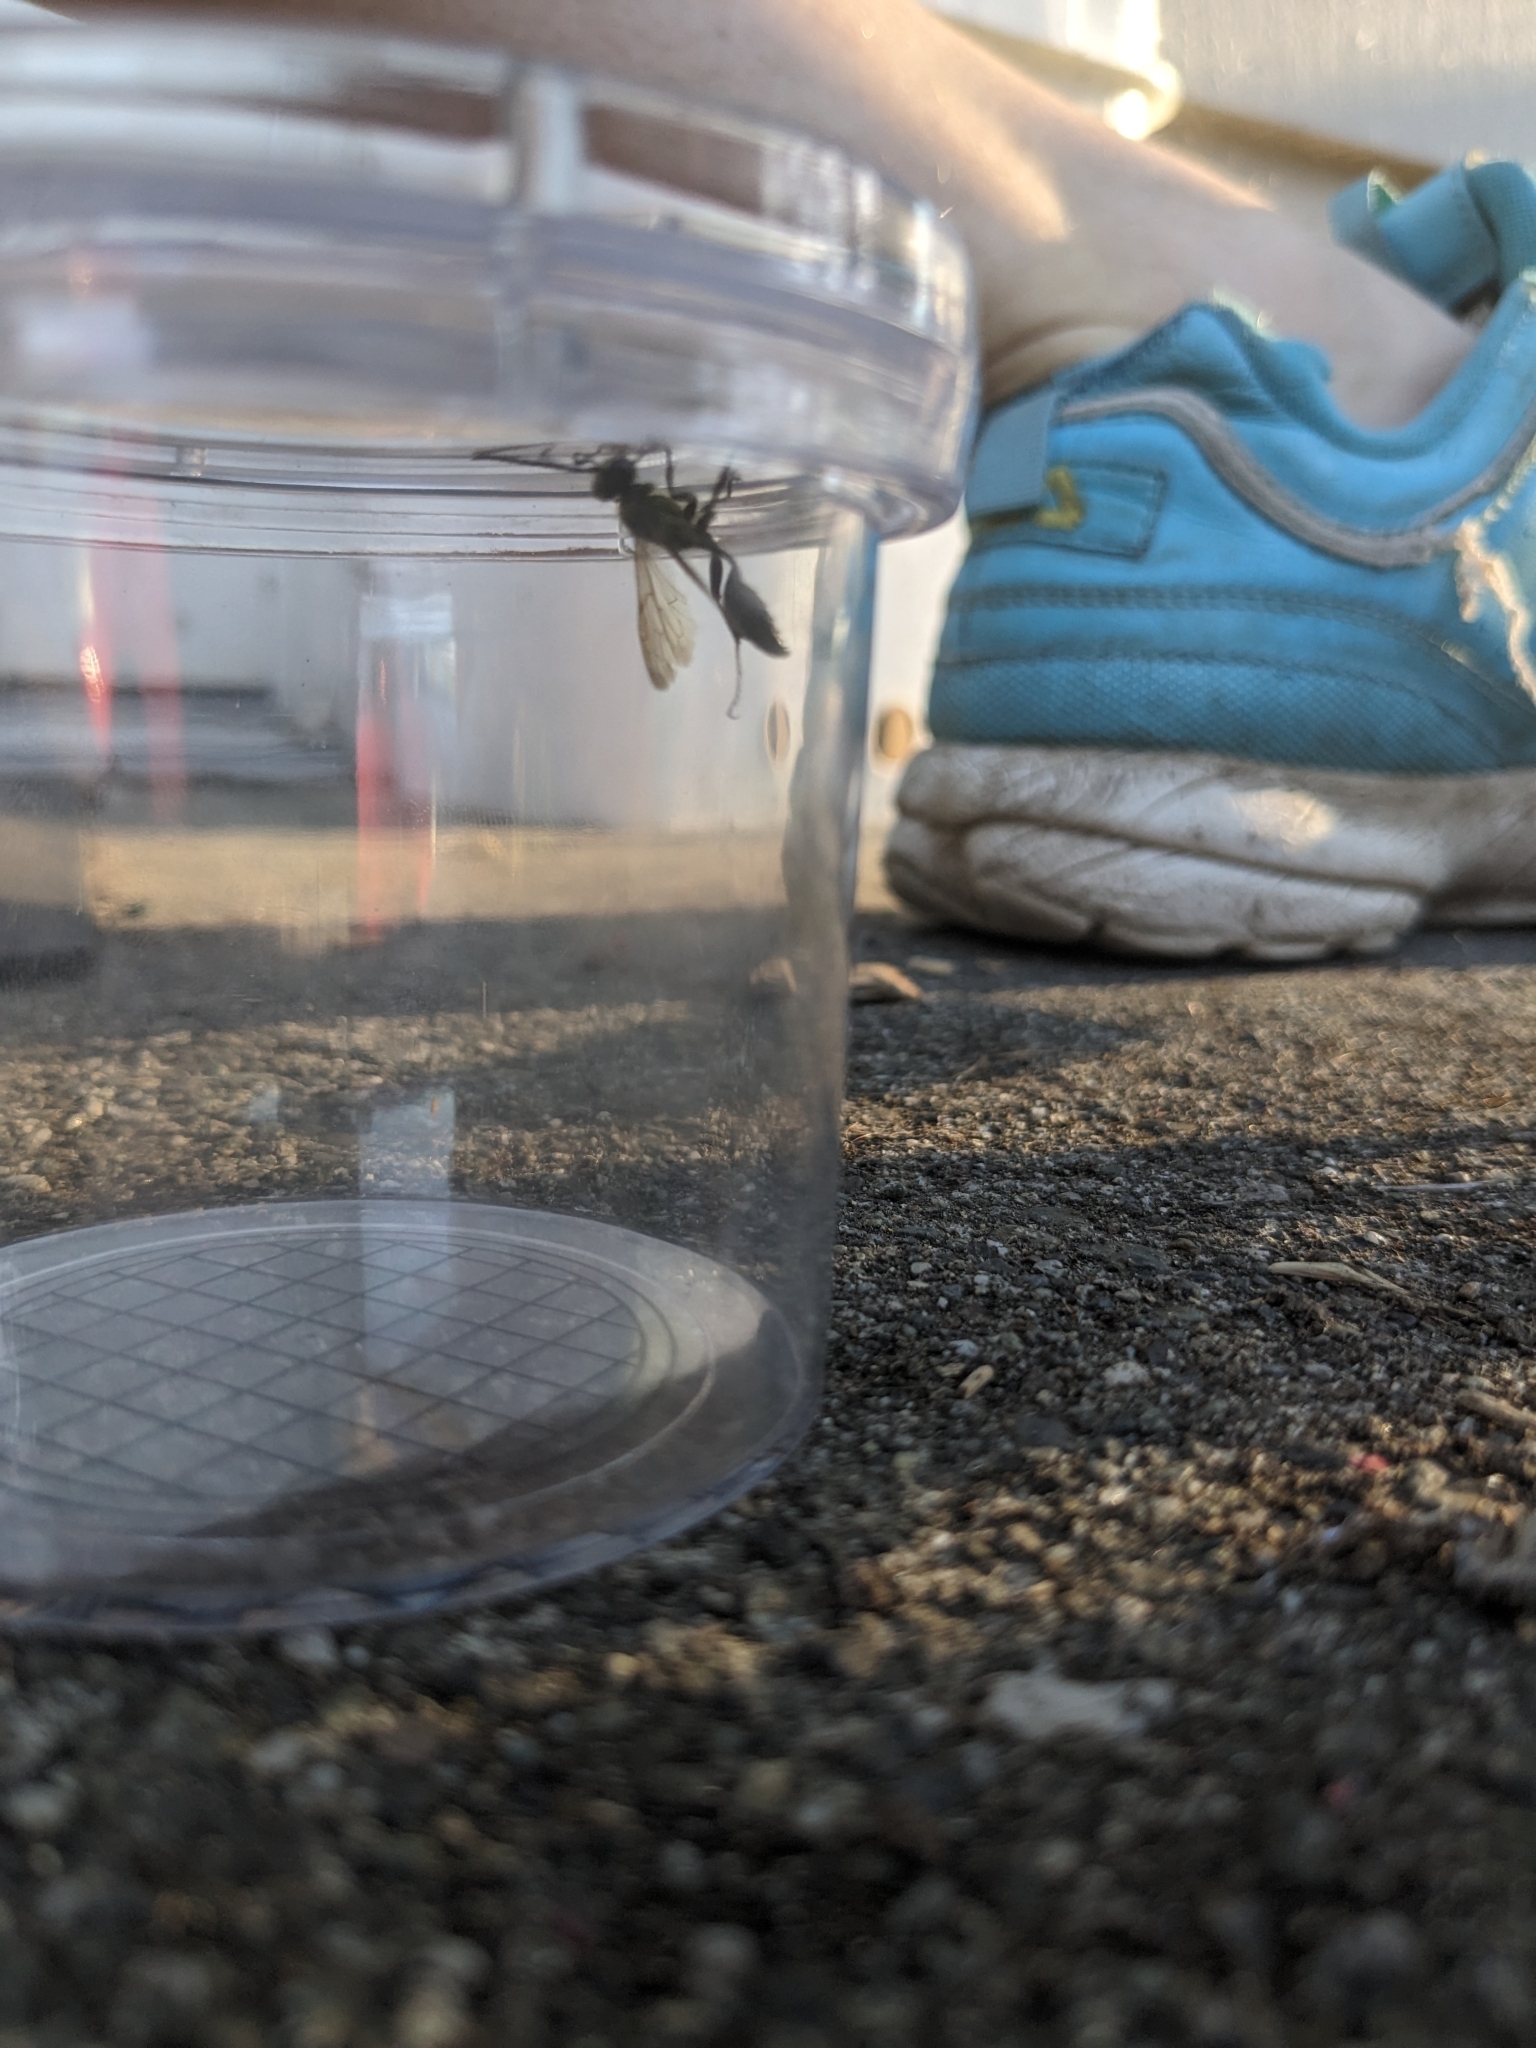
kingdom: Animalia
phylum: Arthropoda
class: Insecta
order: Hymenoptera
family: Sphecidae
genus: Isodontia
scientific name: Isodontia mexicana
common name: Mud dauber
